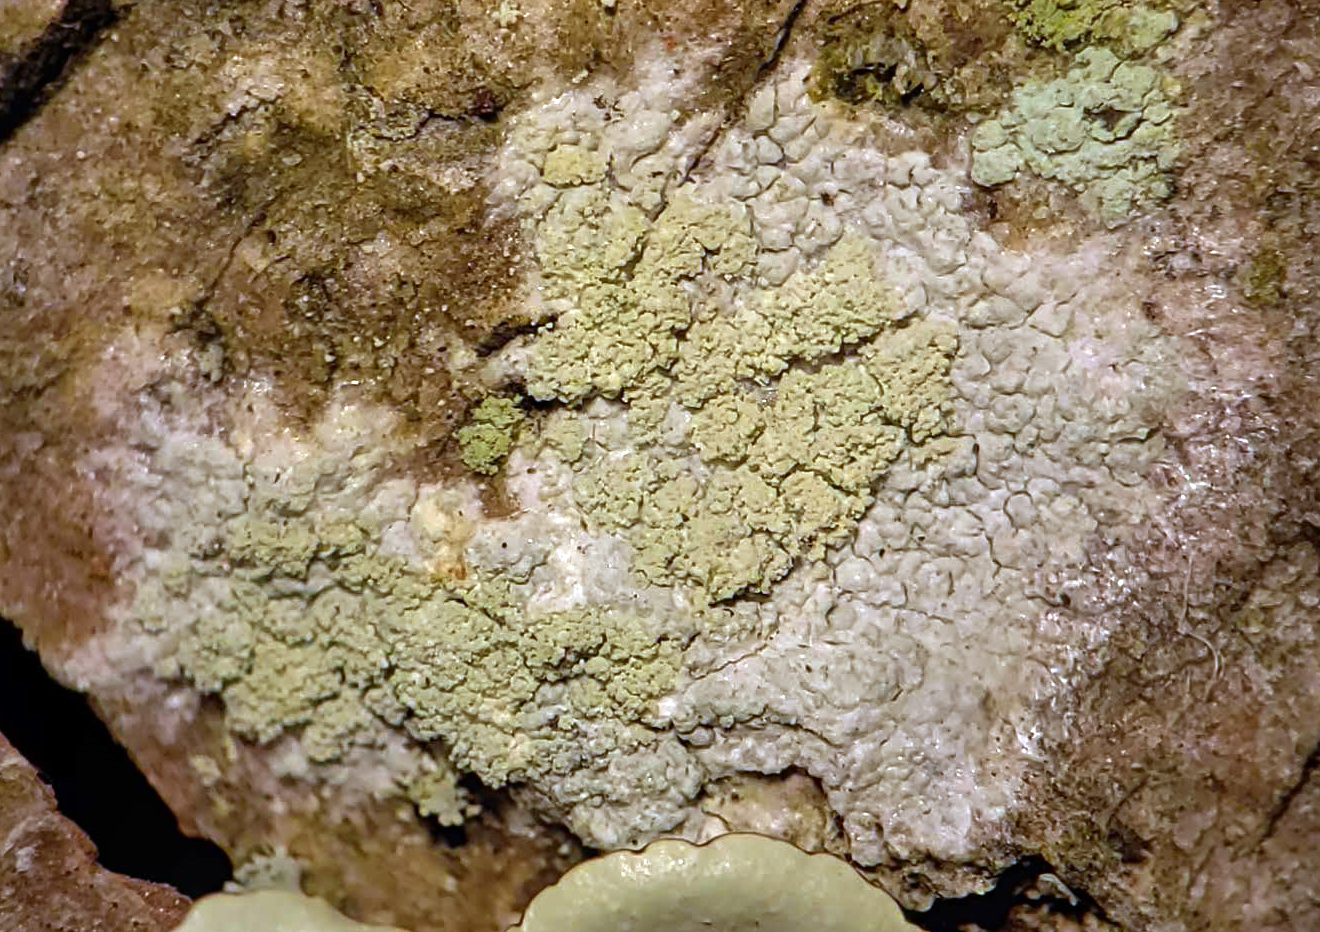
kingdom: Fungi
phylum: Ascomycota
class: Lecanoromycetes
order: Pertusariales
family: Ochrolechiaceae
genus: Ochrolechia
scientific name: Ochrolechia arborea
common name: Tree saucer lichen
